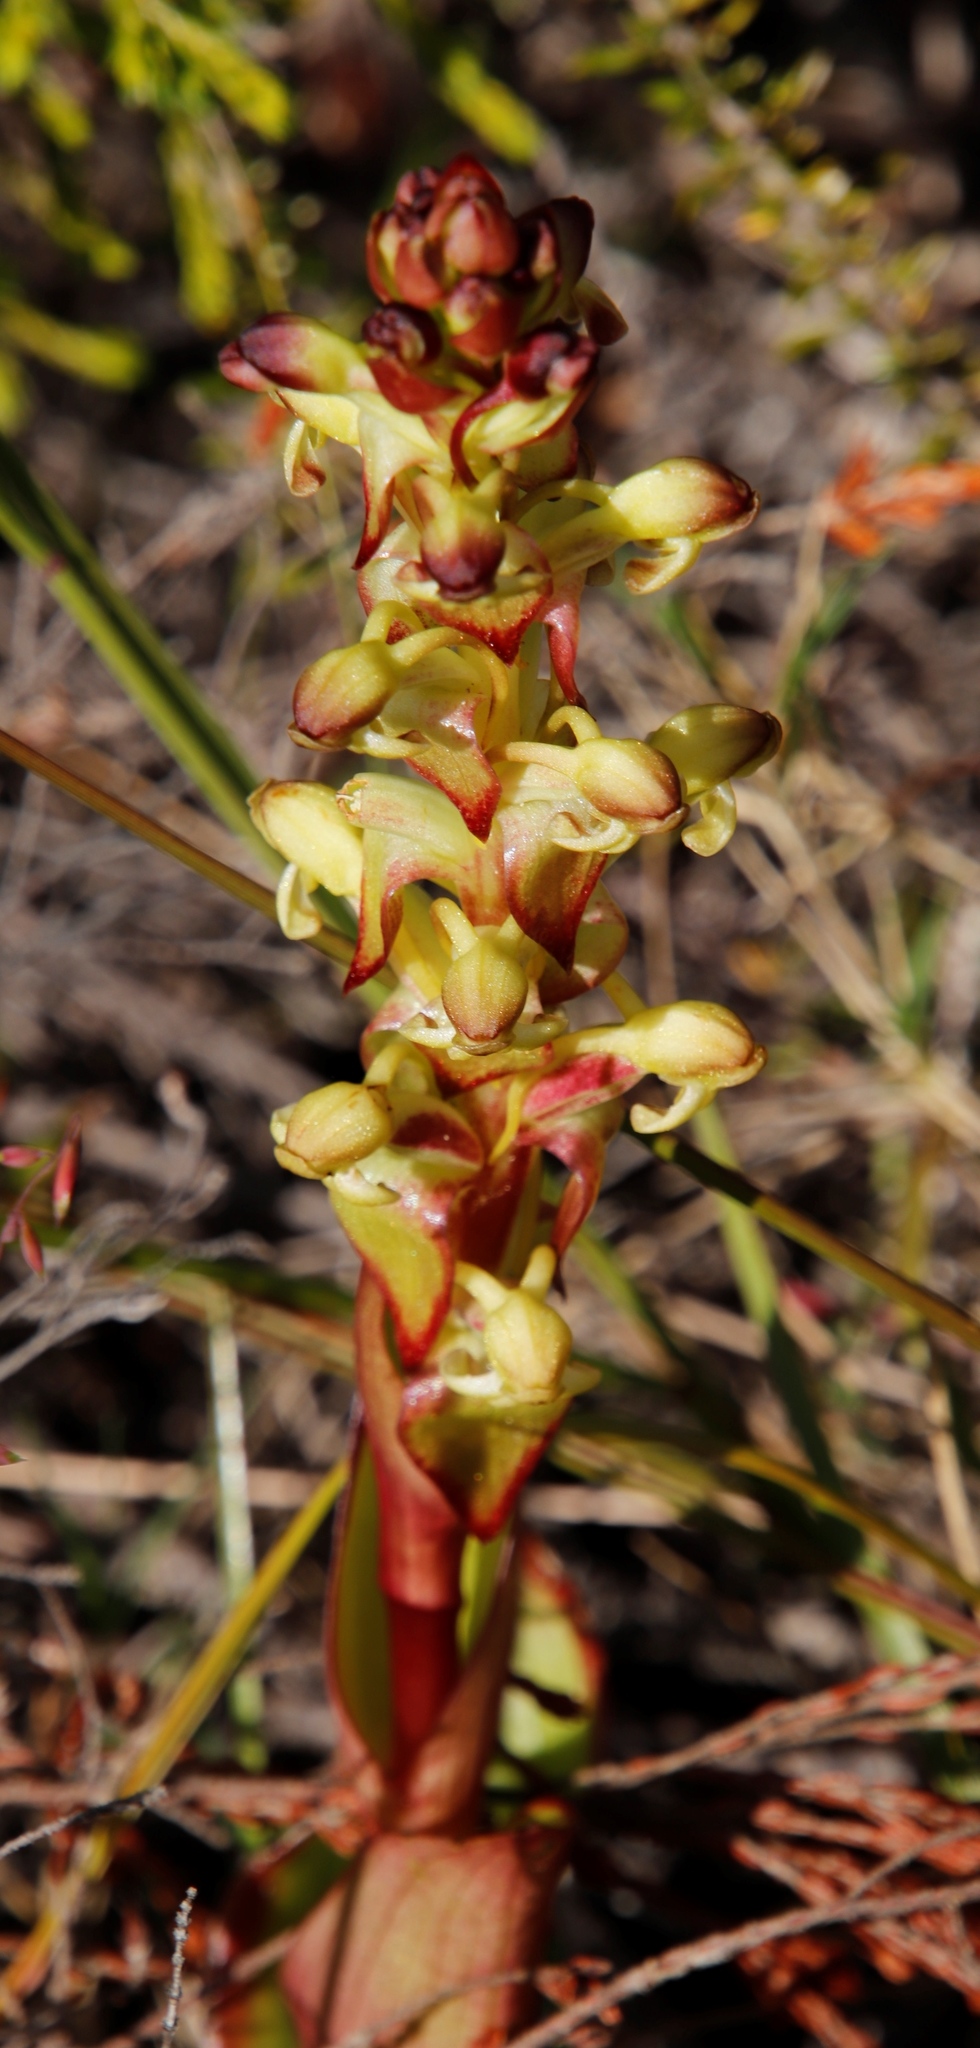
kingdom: Plantae
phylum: Tracheophyta
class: Liliopsida
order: Asparagales
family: Orchidaceae
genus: Satyrium
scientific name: Satyrium odorum
